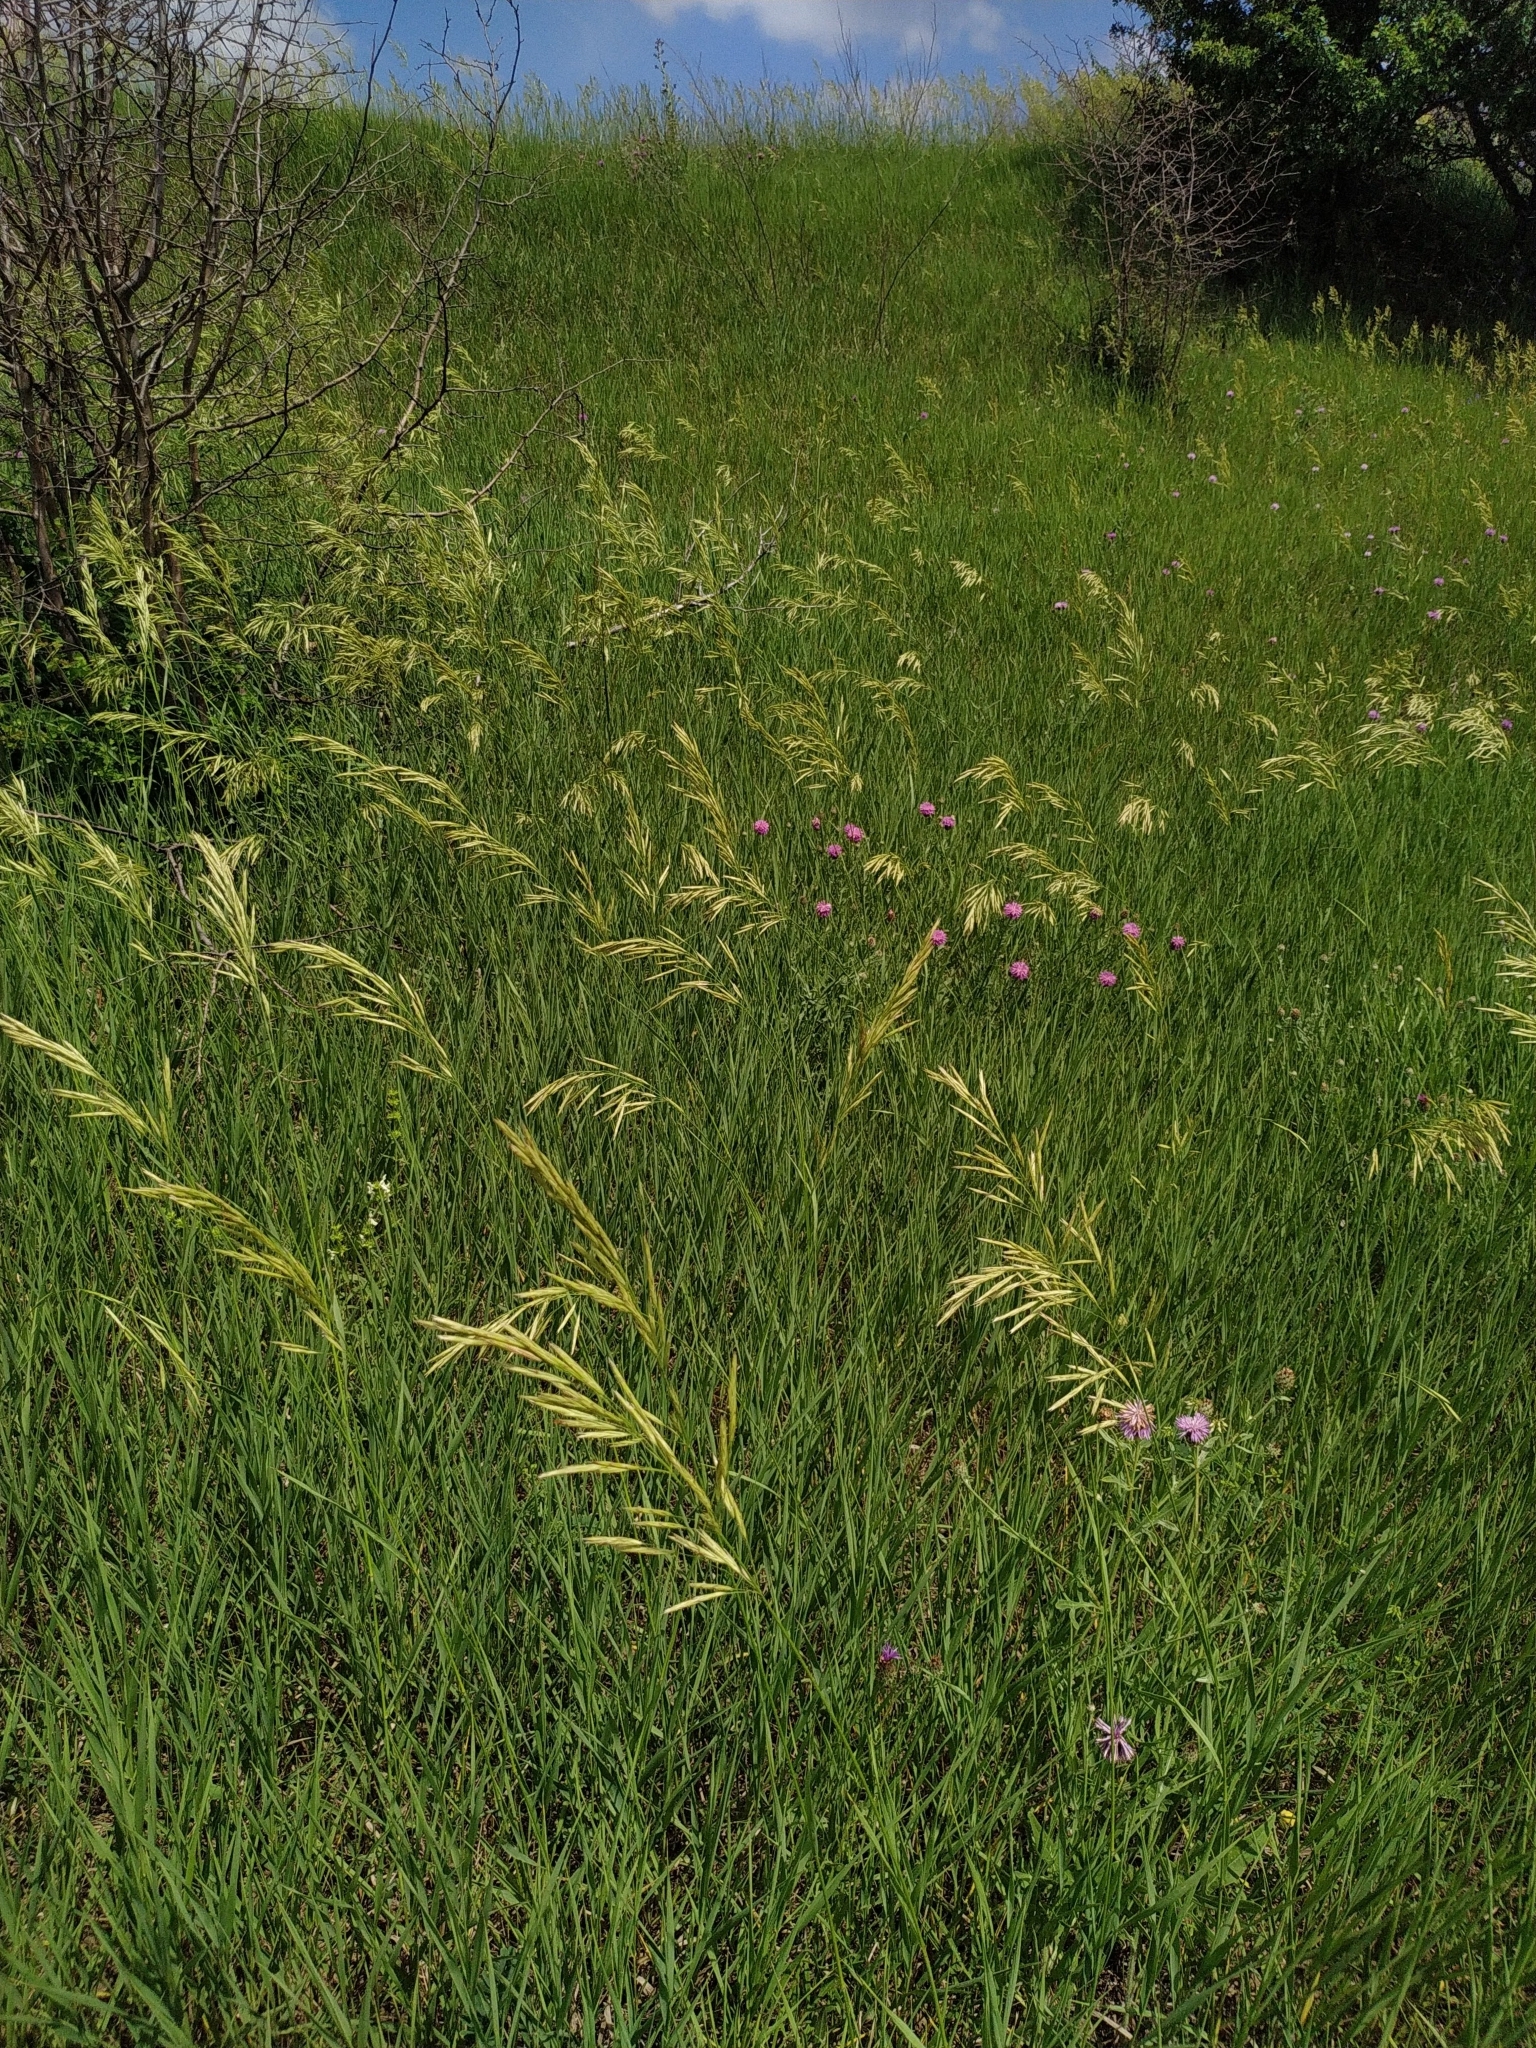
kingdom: Plantae
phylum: Tracheophyta
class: Liliopsida
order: Poales
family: Poaceae
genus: Bromus
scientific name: Bromus inermis
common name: Smooth brome
